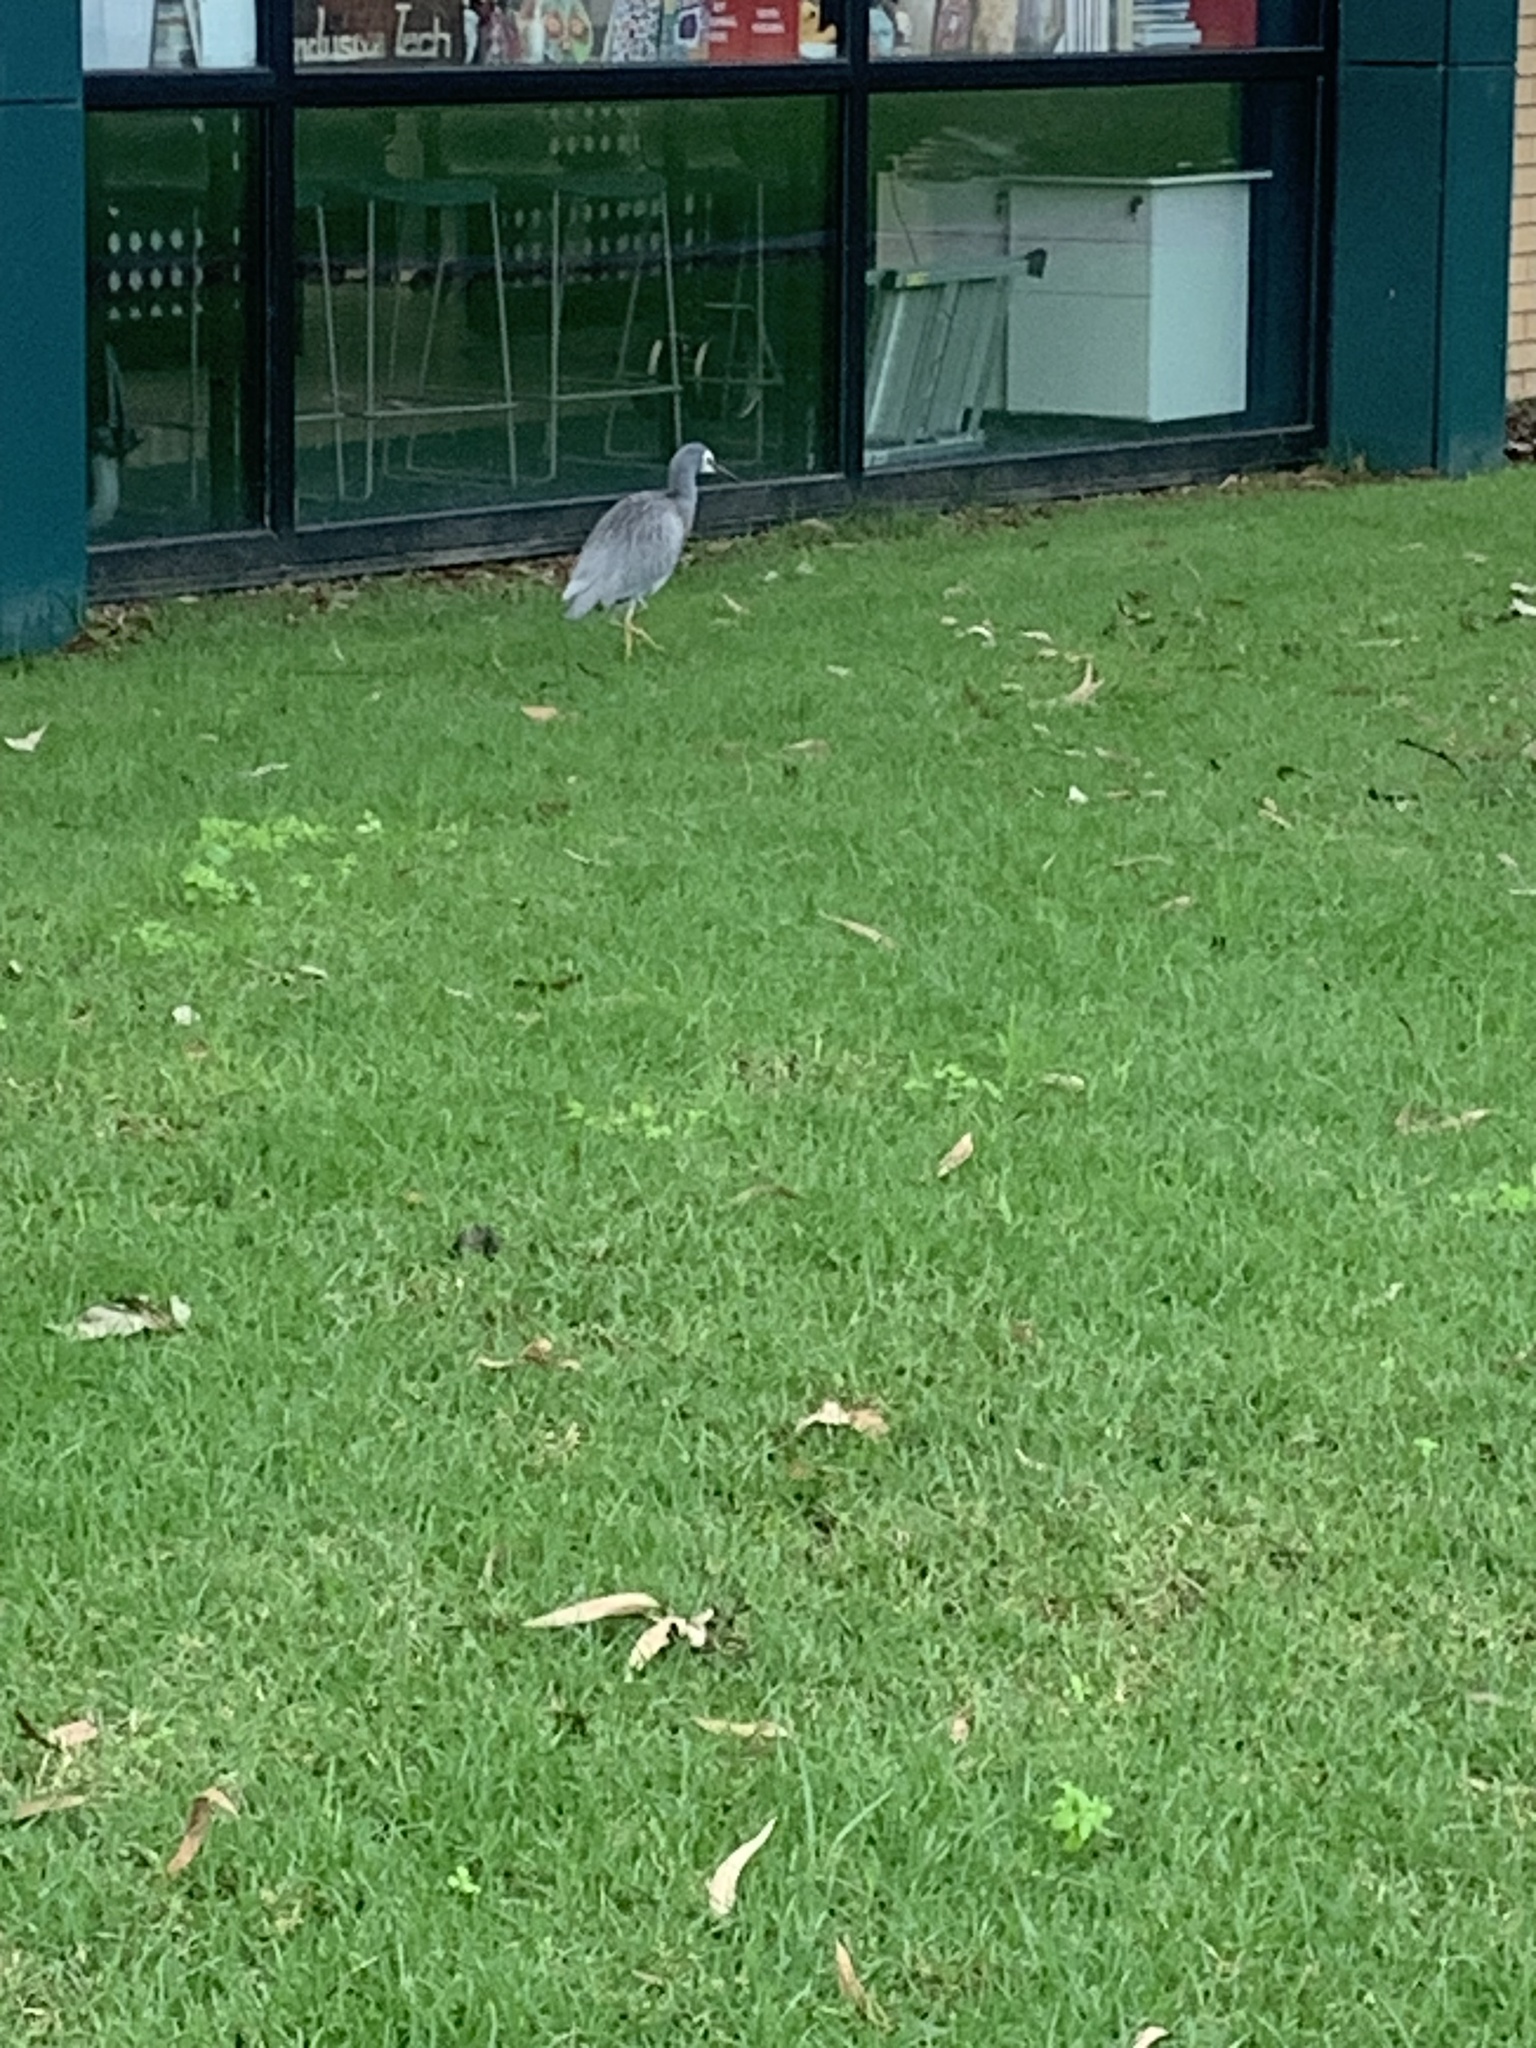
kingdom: Animalia
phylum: Chordata
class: Aves
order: Pelecaniformes
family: Ardeidae
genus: Egretta
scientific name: Egretta novaehollandiae
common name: White-faced heron
